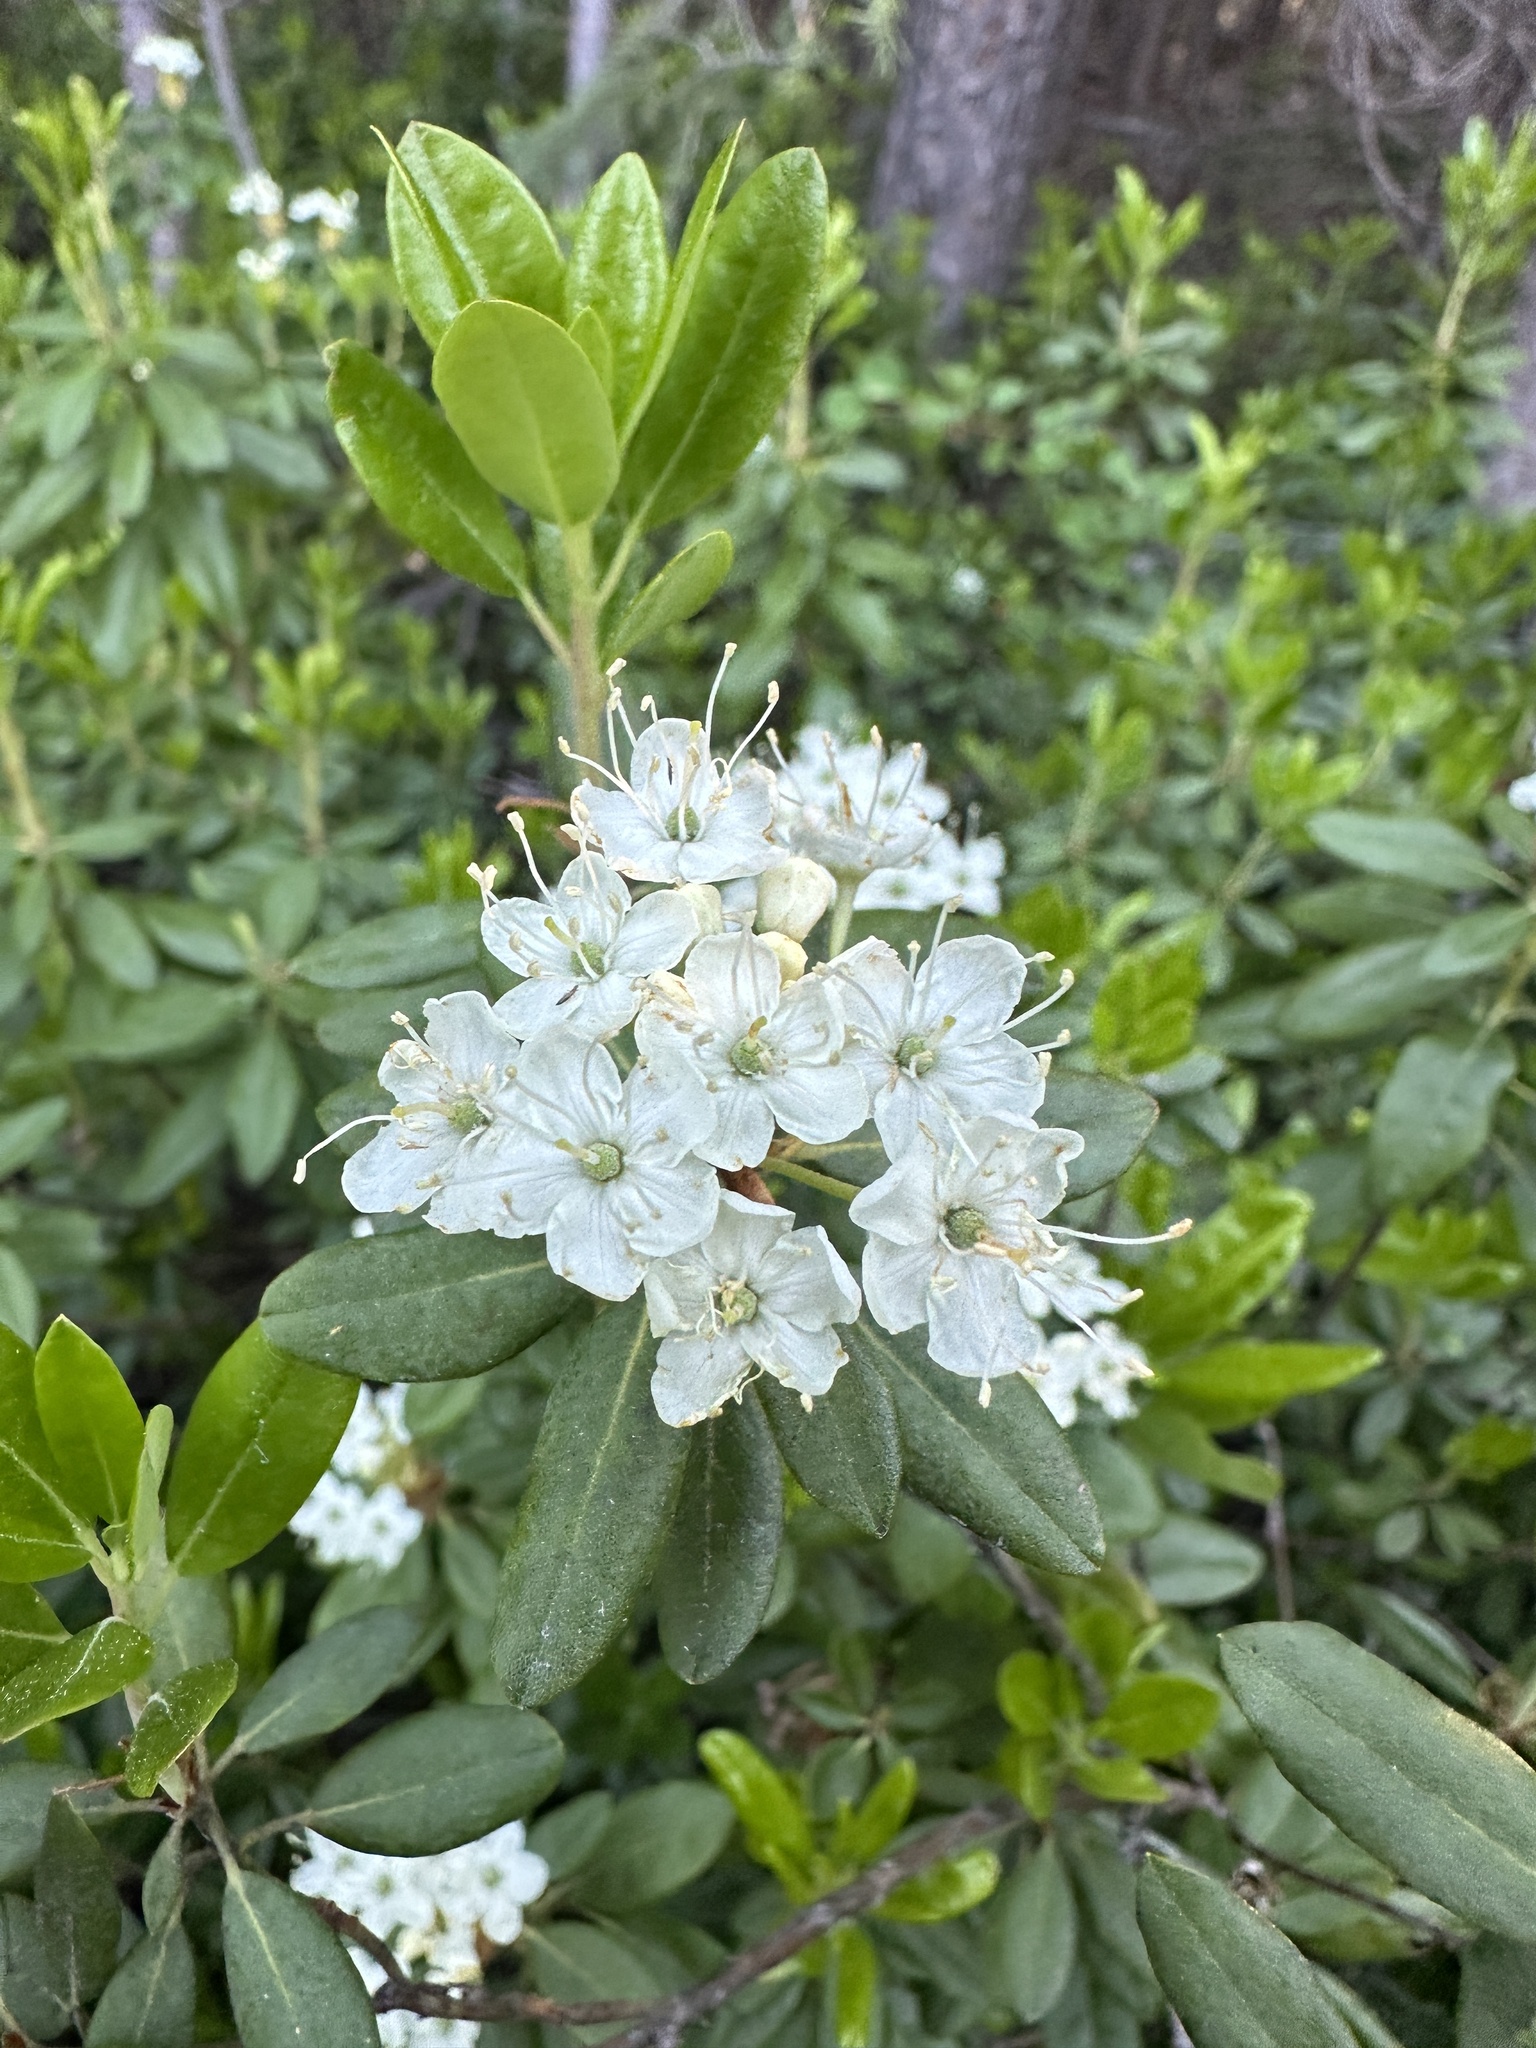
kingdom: Plantae
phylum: Tracheophyta
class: Magnoliopsida
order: Ericales
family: Ericaceae
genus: Rhododendron
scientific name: Rhododendron columbianum
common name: Western labrador tea
